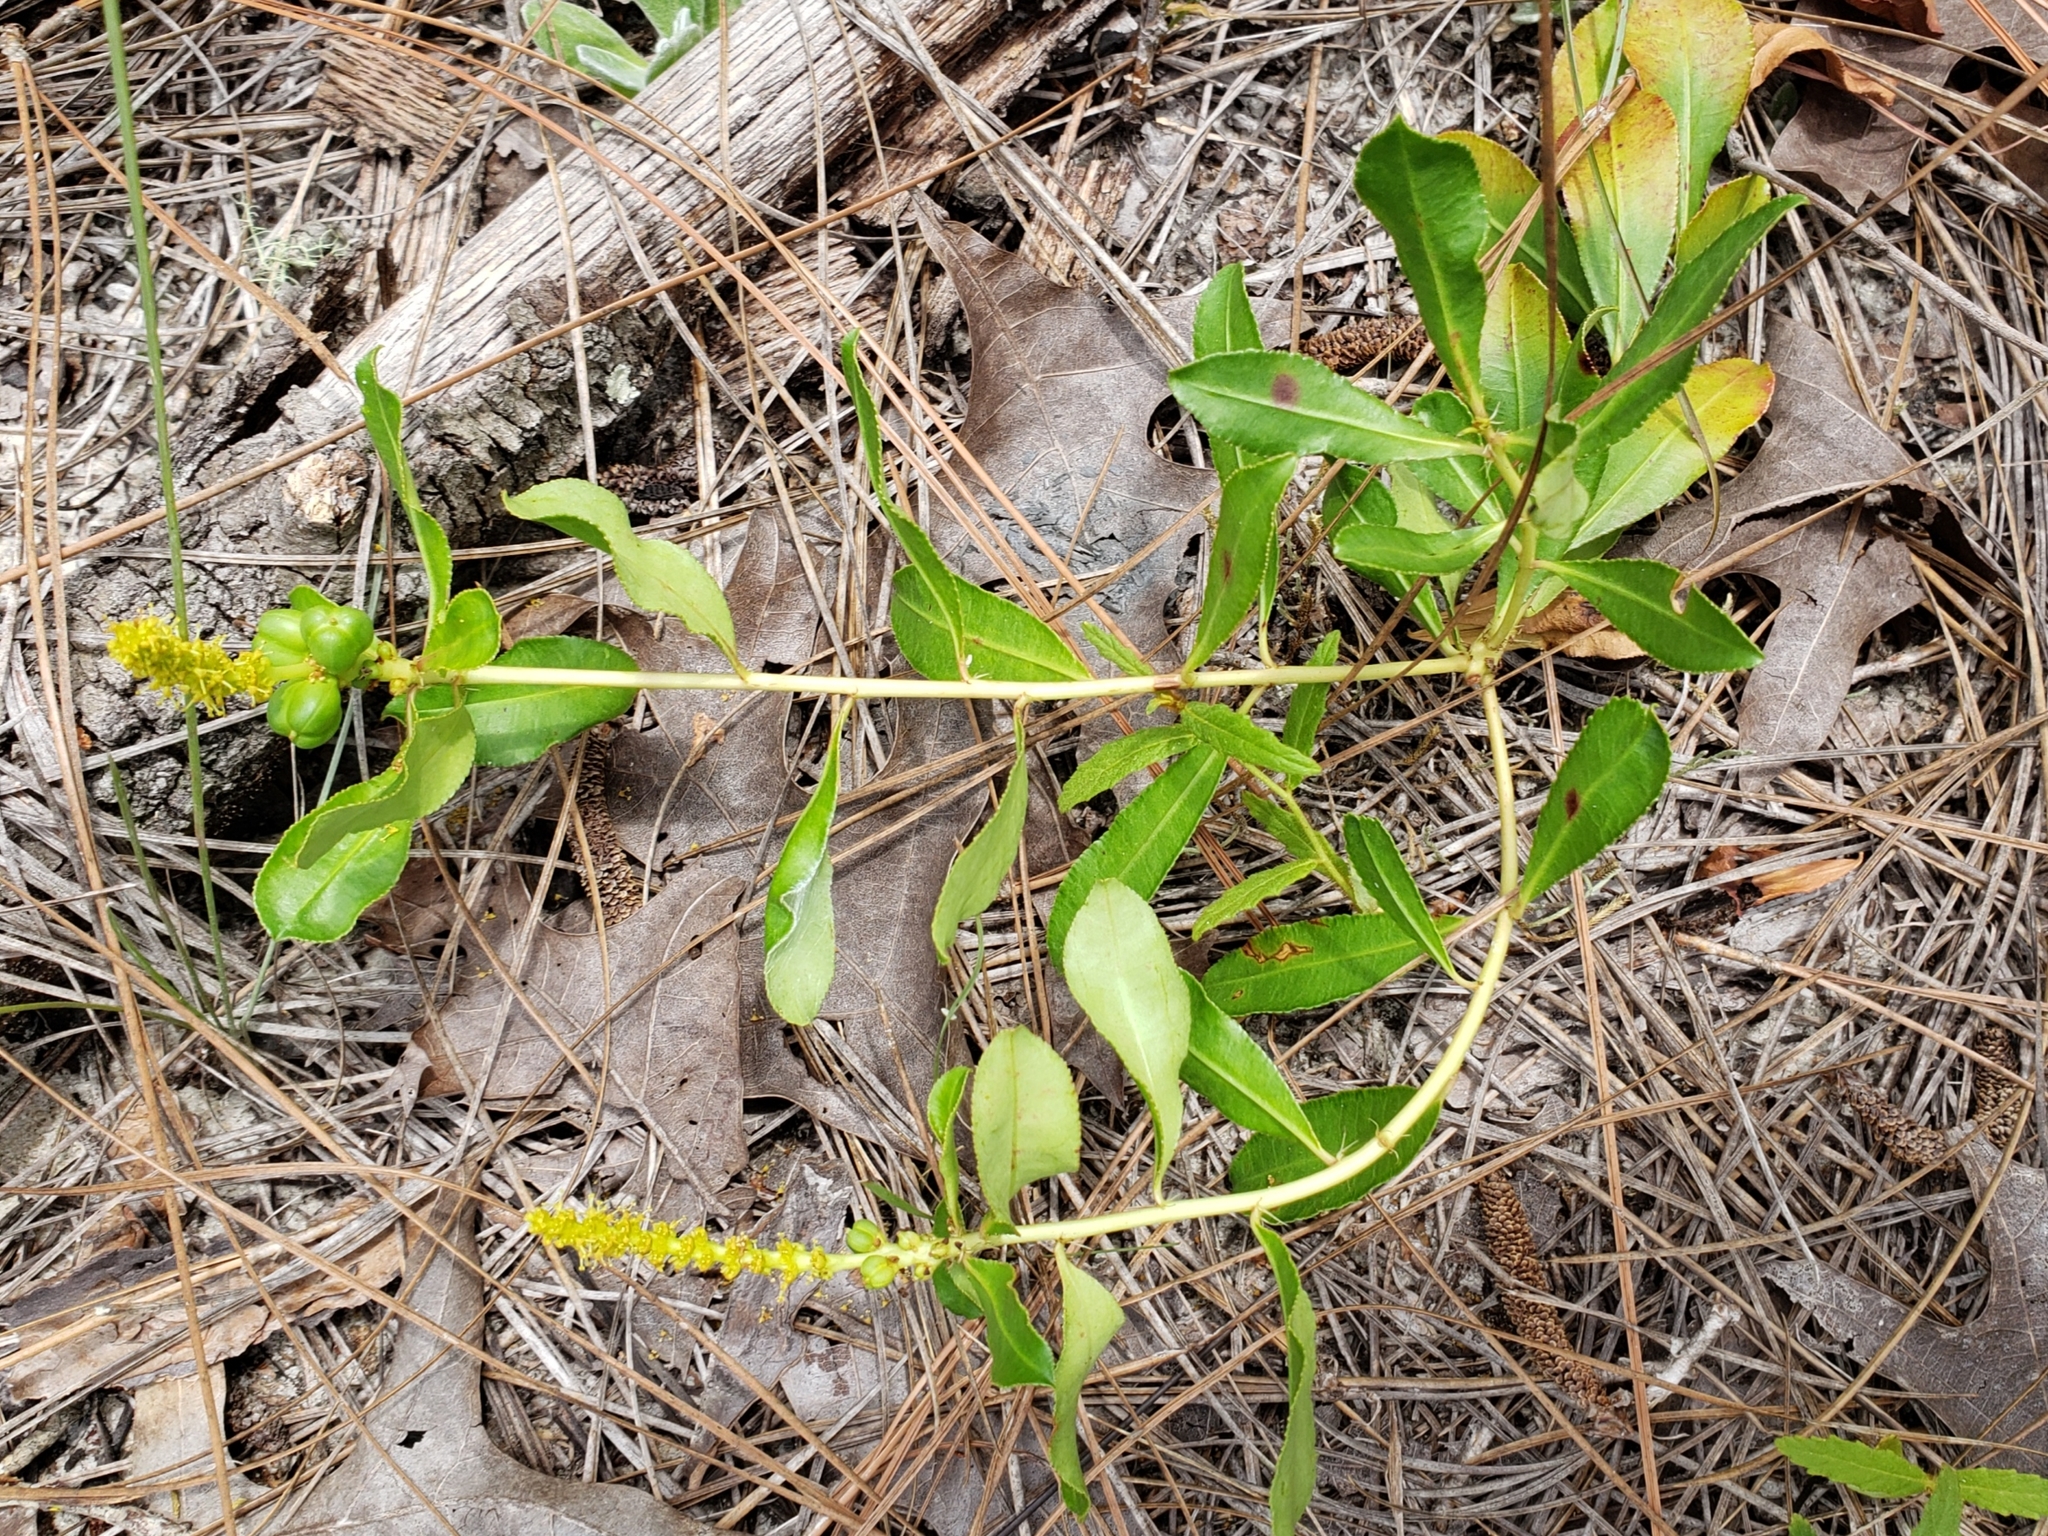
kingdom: Plantae
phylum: Tracheophyta
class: Magnoliopsida
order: Malpighiales
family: Euphorbiaceae
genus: Stillingia
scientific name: Stillingia sylvatica
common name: Queen's-delight
